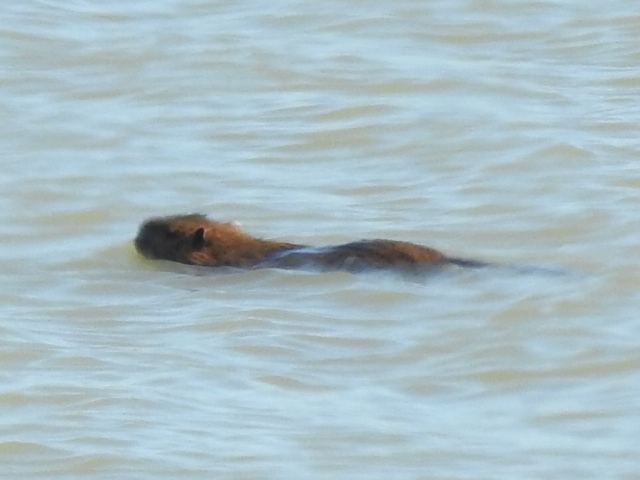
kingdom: Animalia
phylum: Chordata
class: Mammalia
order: Rodentia
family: Castoridae
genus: Castor
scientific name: Castor canadensis
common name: American beaver
